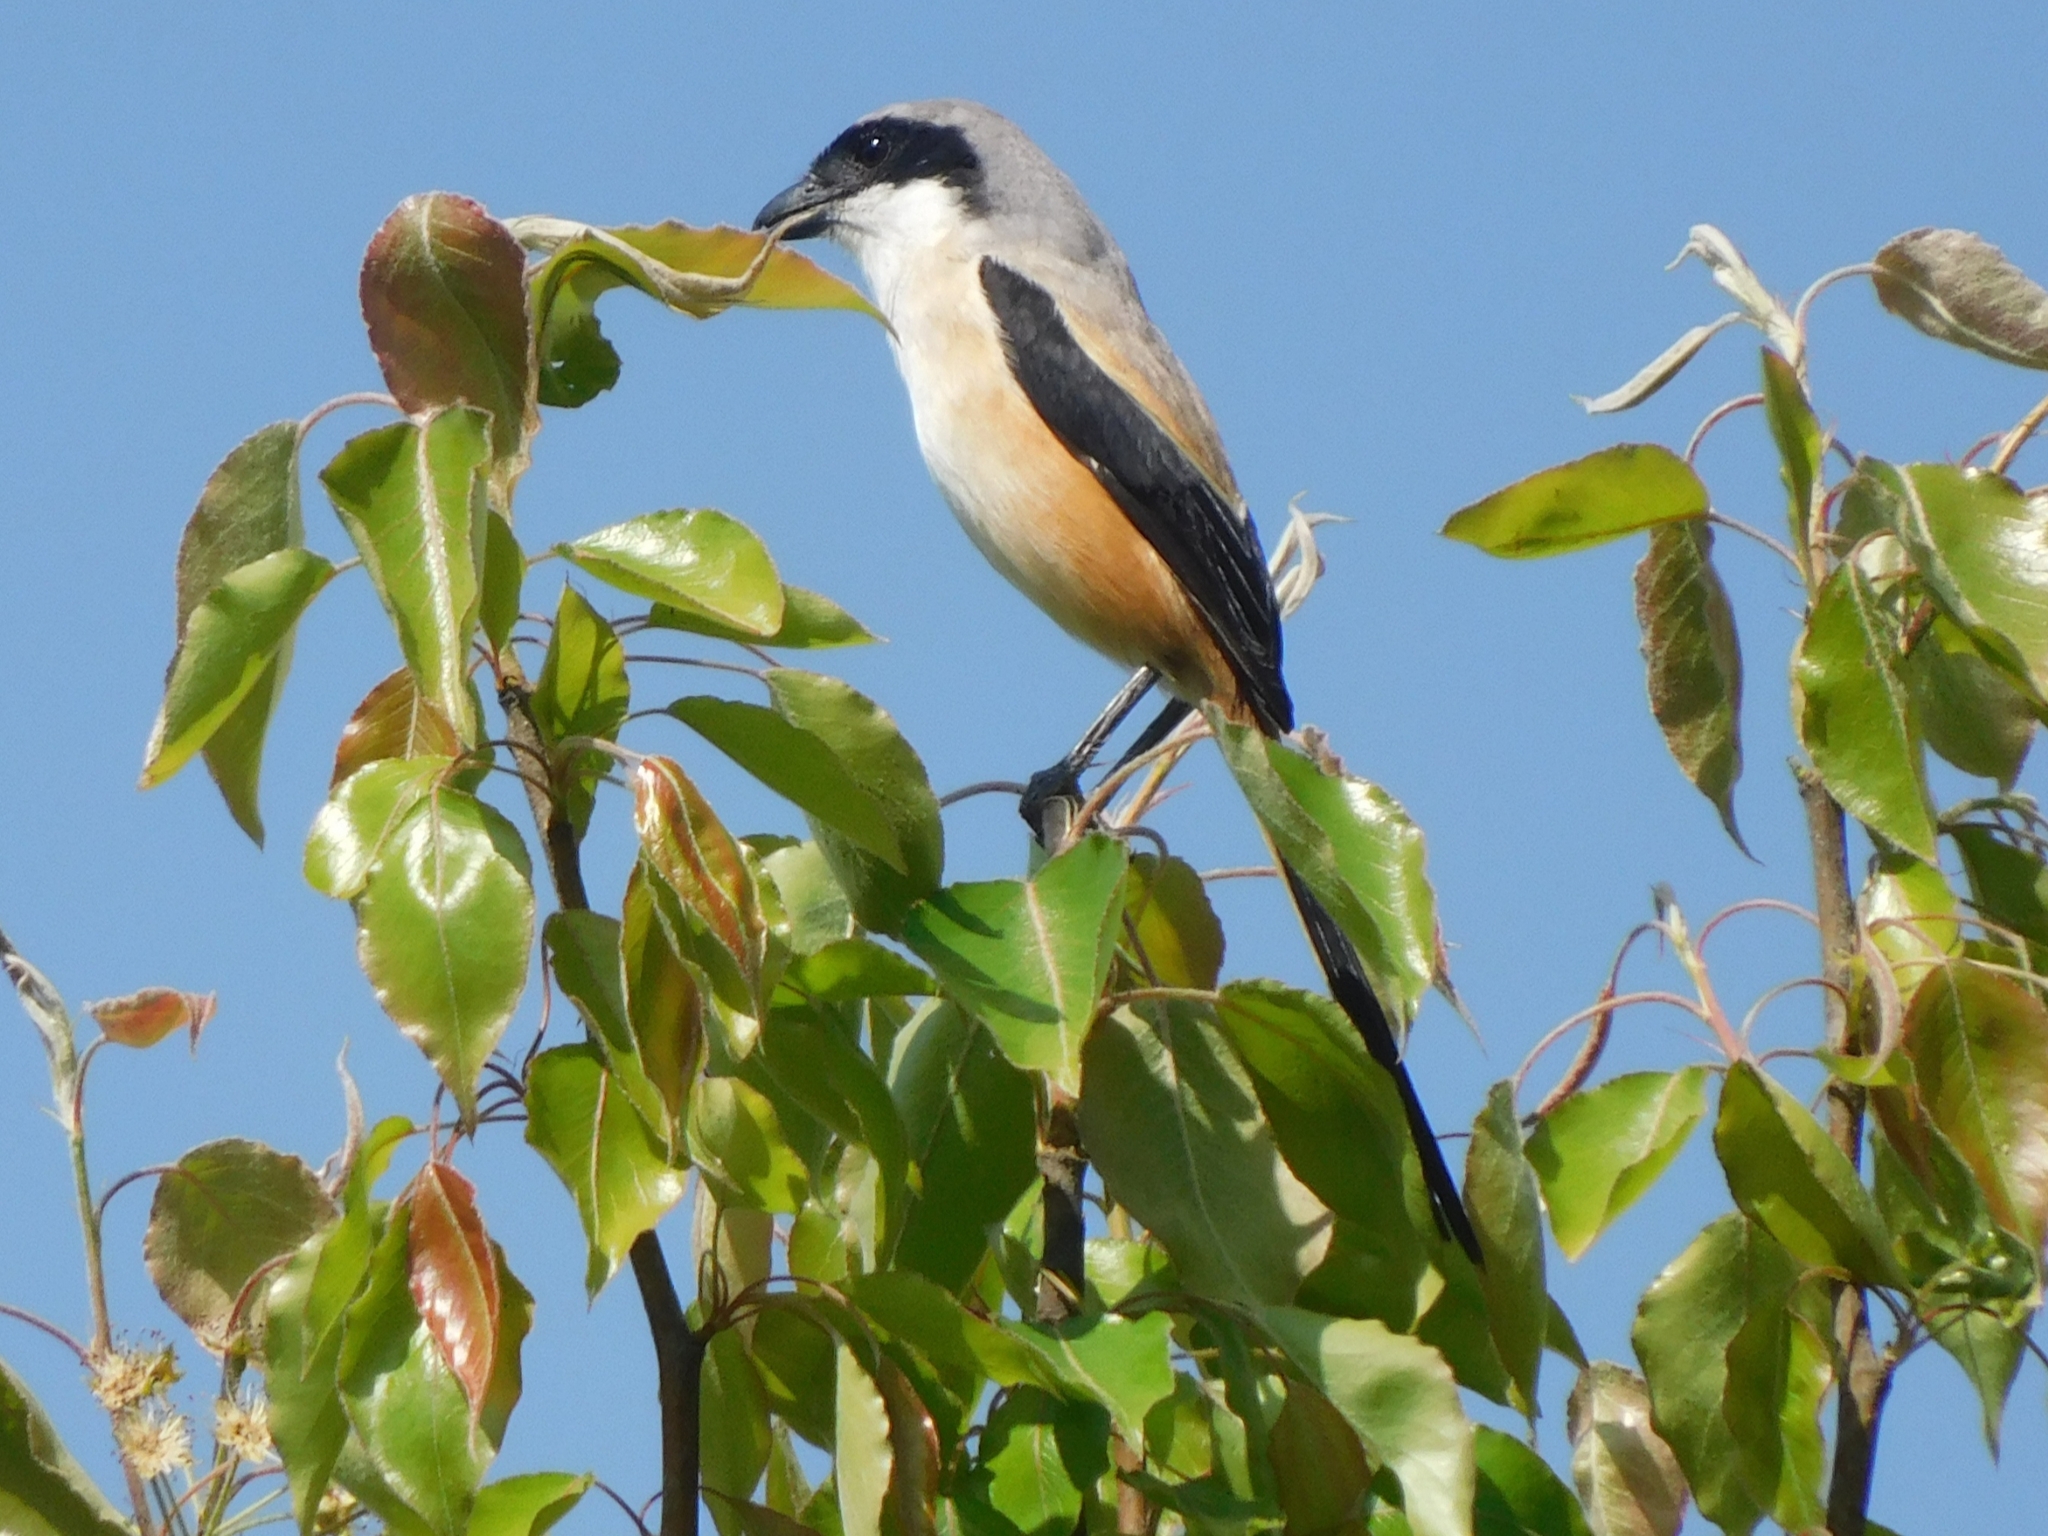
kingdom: Animalia
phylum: Chordata
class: Aves
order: Passeriformes
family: Laniidae
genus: Lanius
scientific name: Lanius schach
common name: Long-tailed shrike
